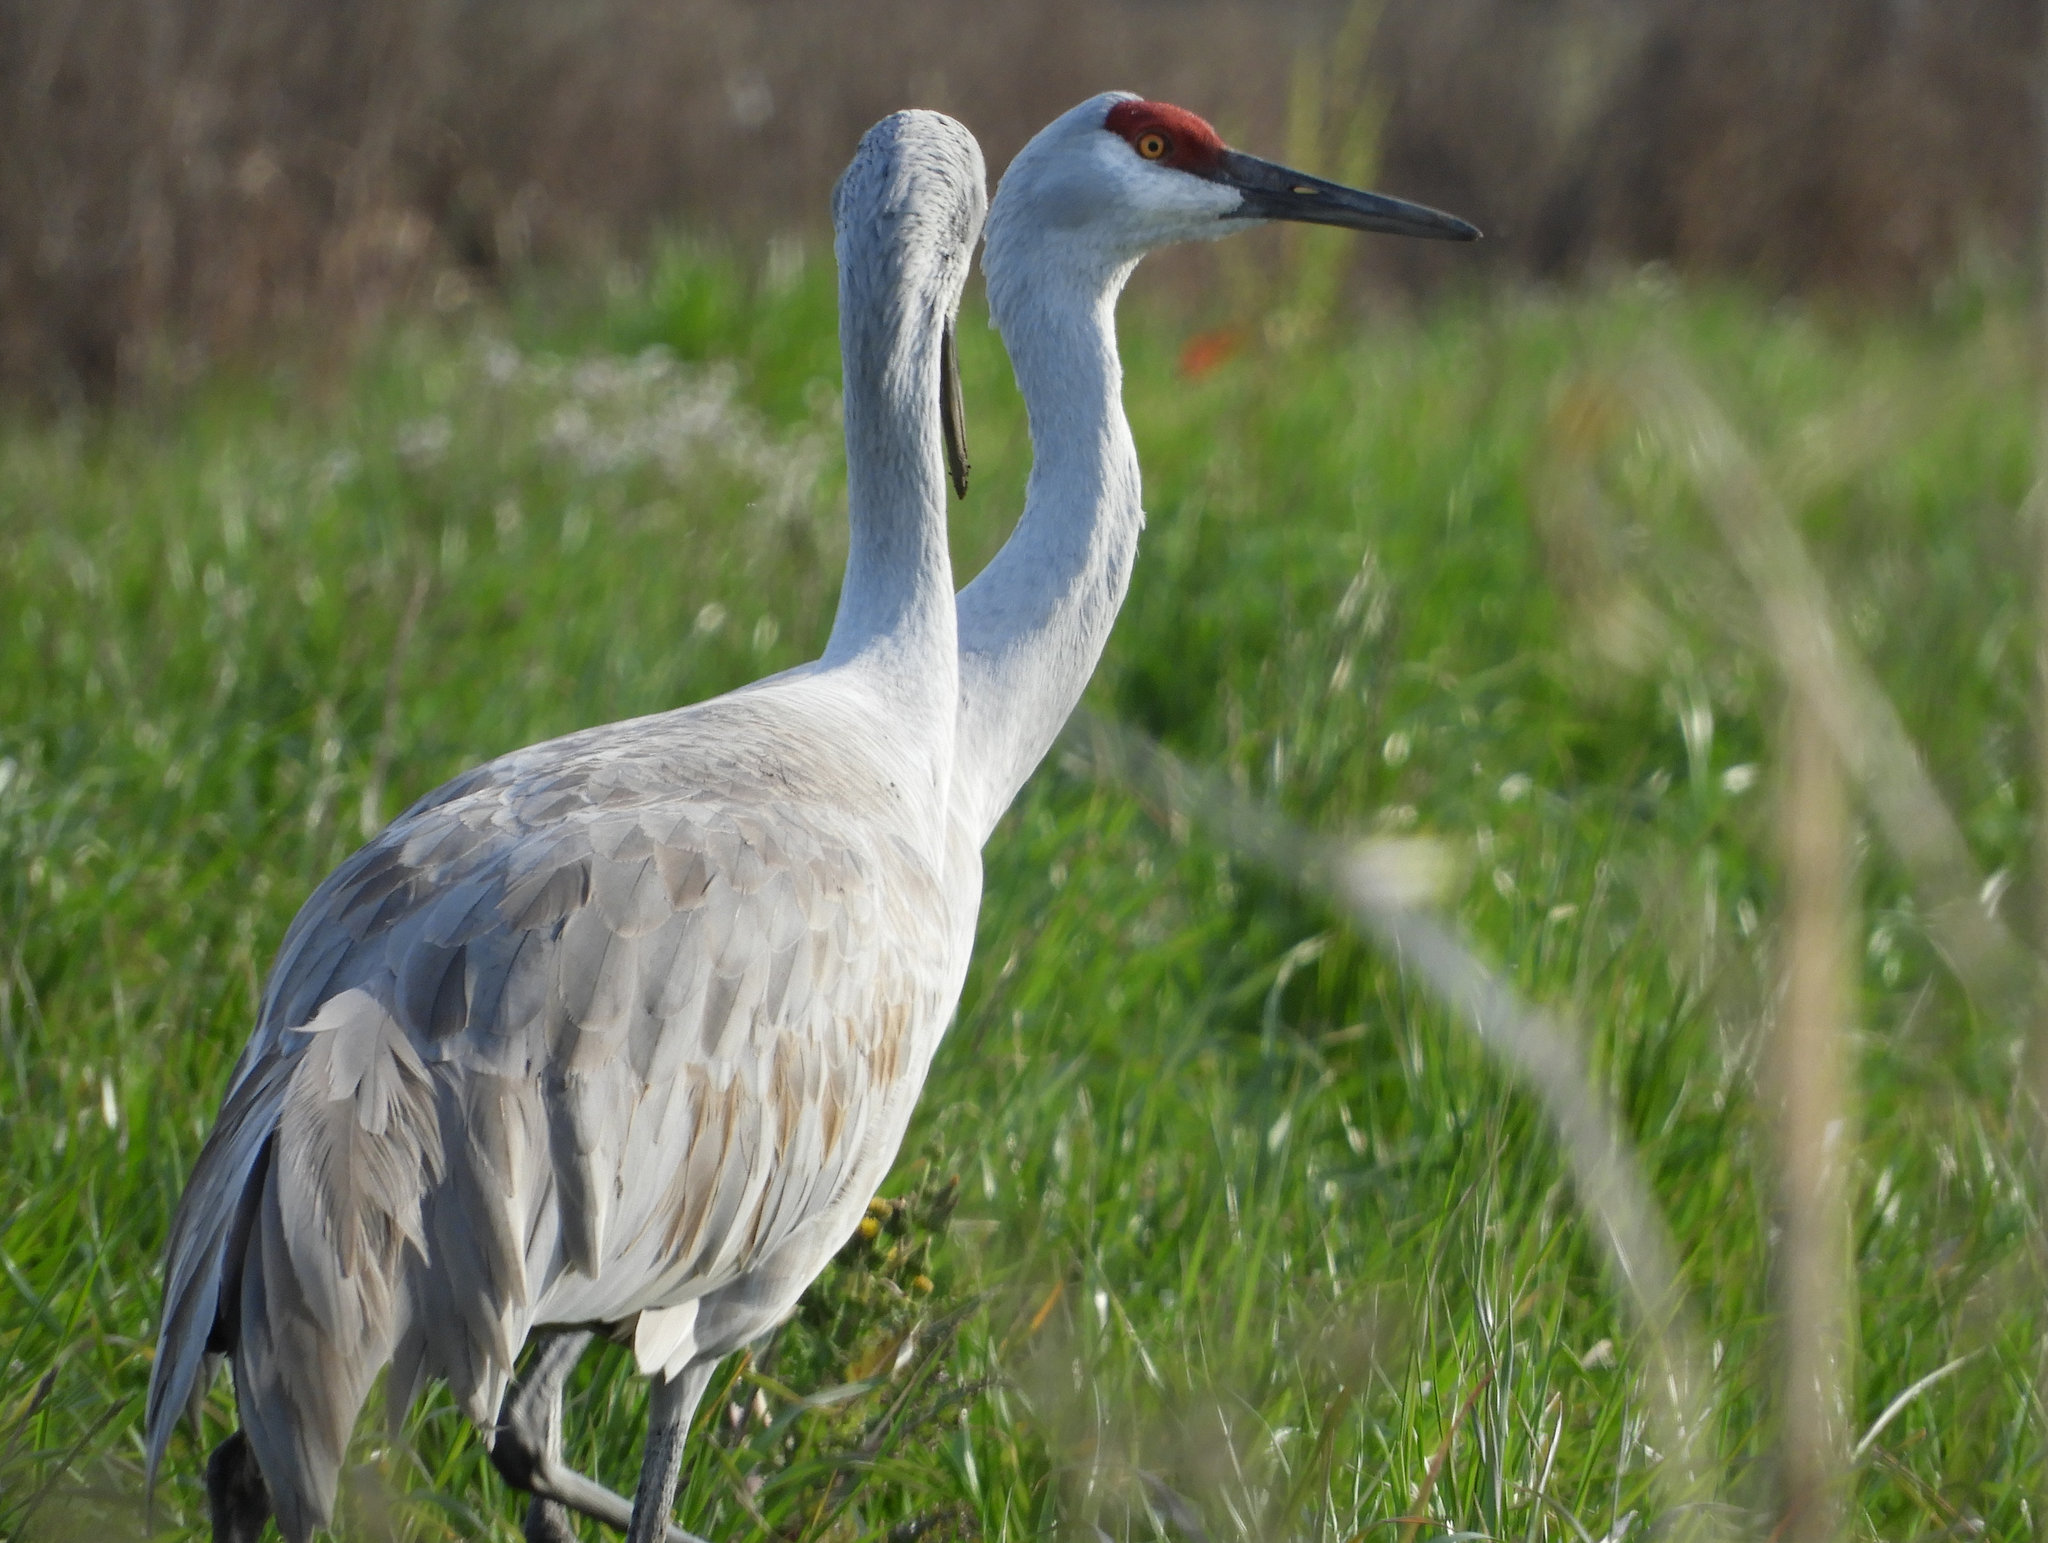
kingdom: Animalia
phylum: Chordata
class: Aves
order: Gruiformes
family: Gruidae
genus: Grus
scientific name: Grus canadensis
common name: Sandhill crane
